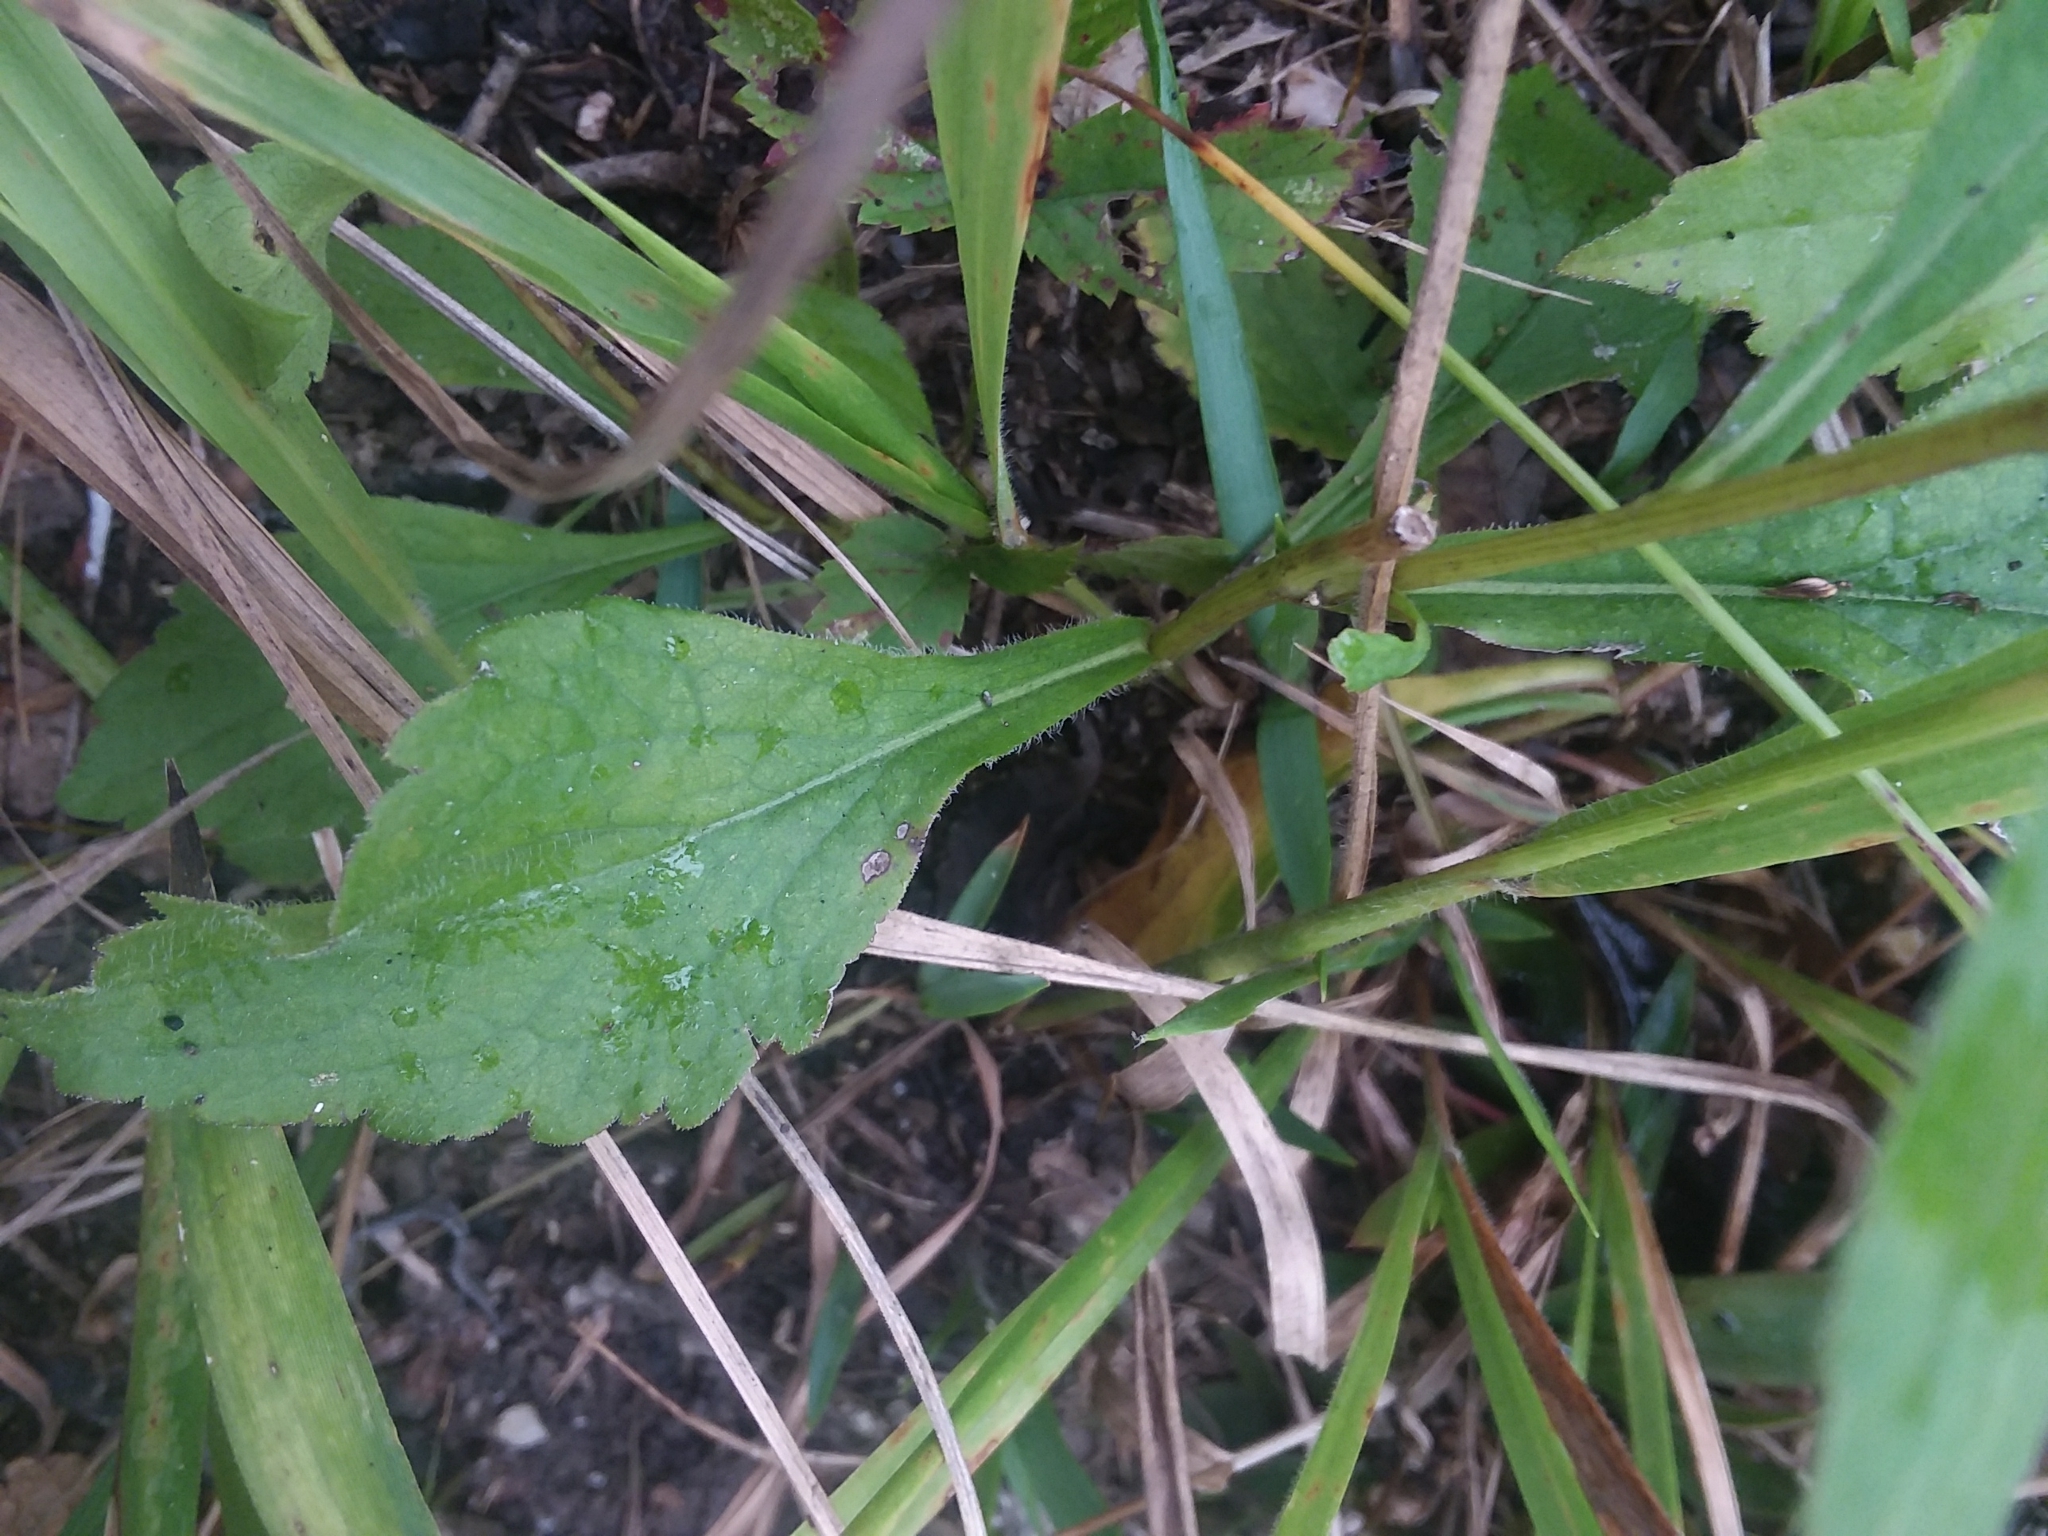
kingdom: Plantae
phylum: Tracheophyta
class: Magnoliopsida
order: Asterales
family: Asteraceae
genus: Solidago
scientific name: Solidago boottii
